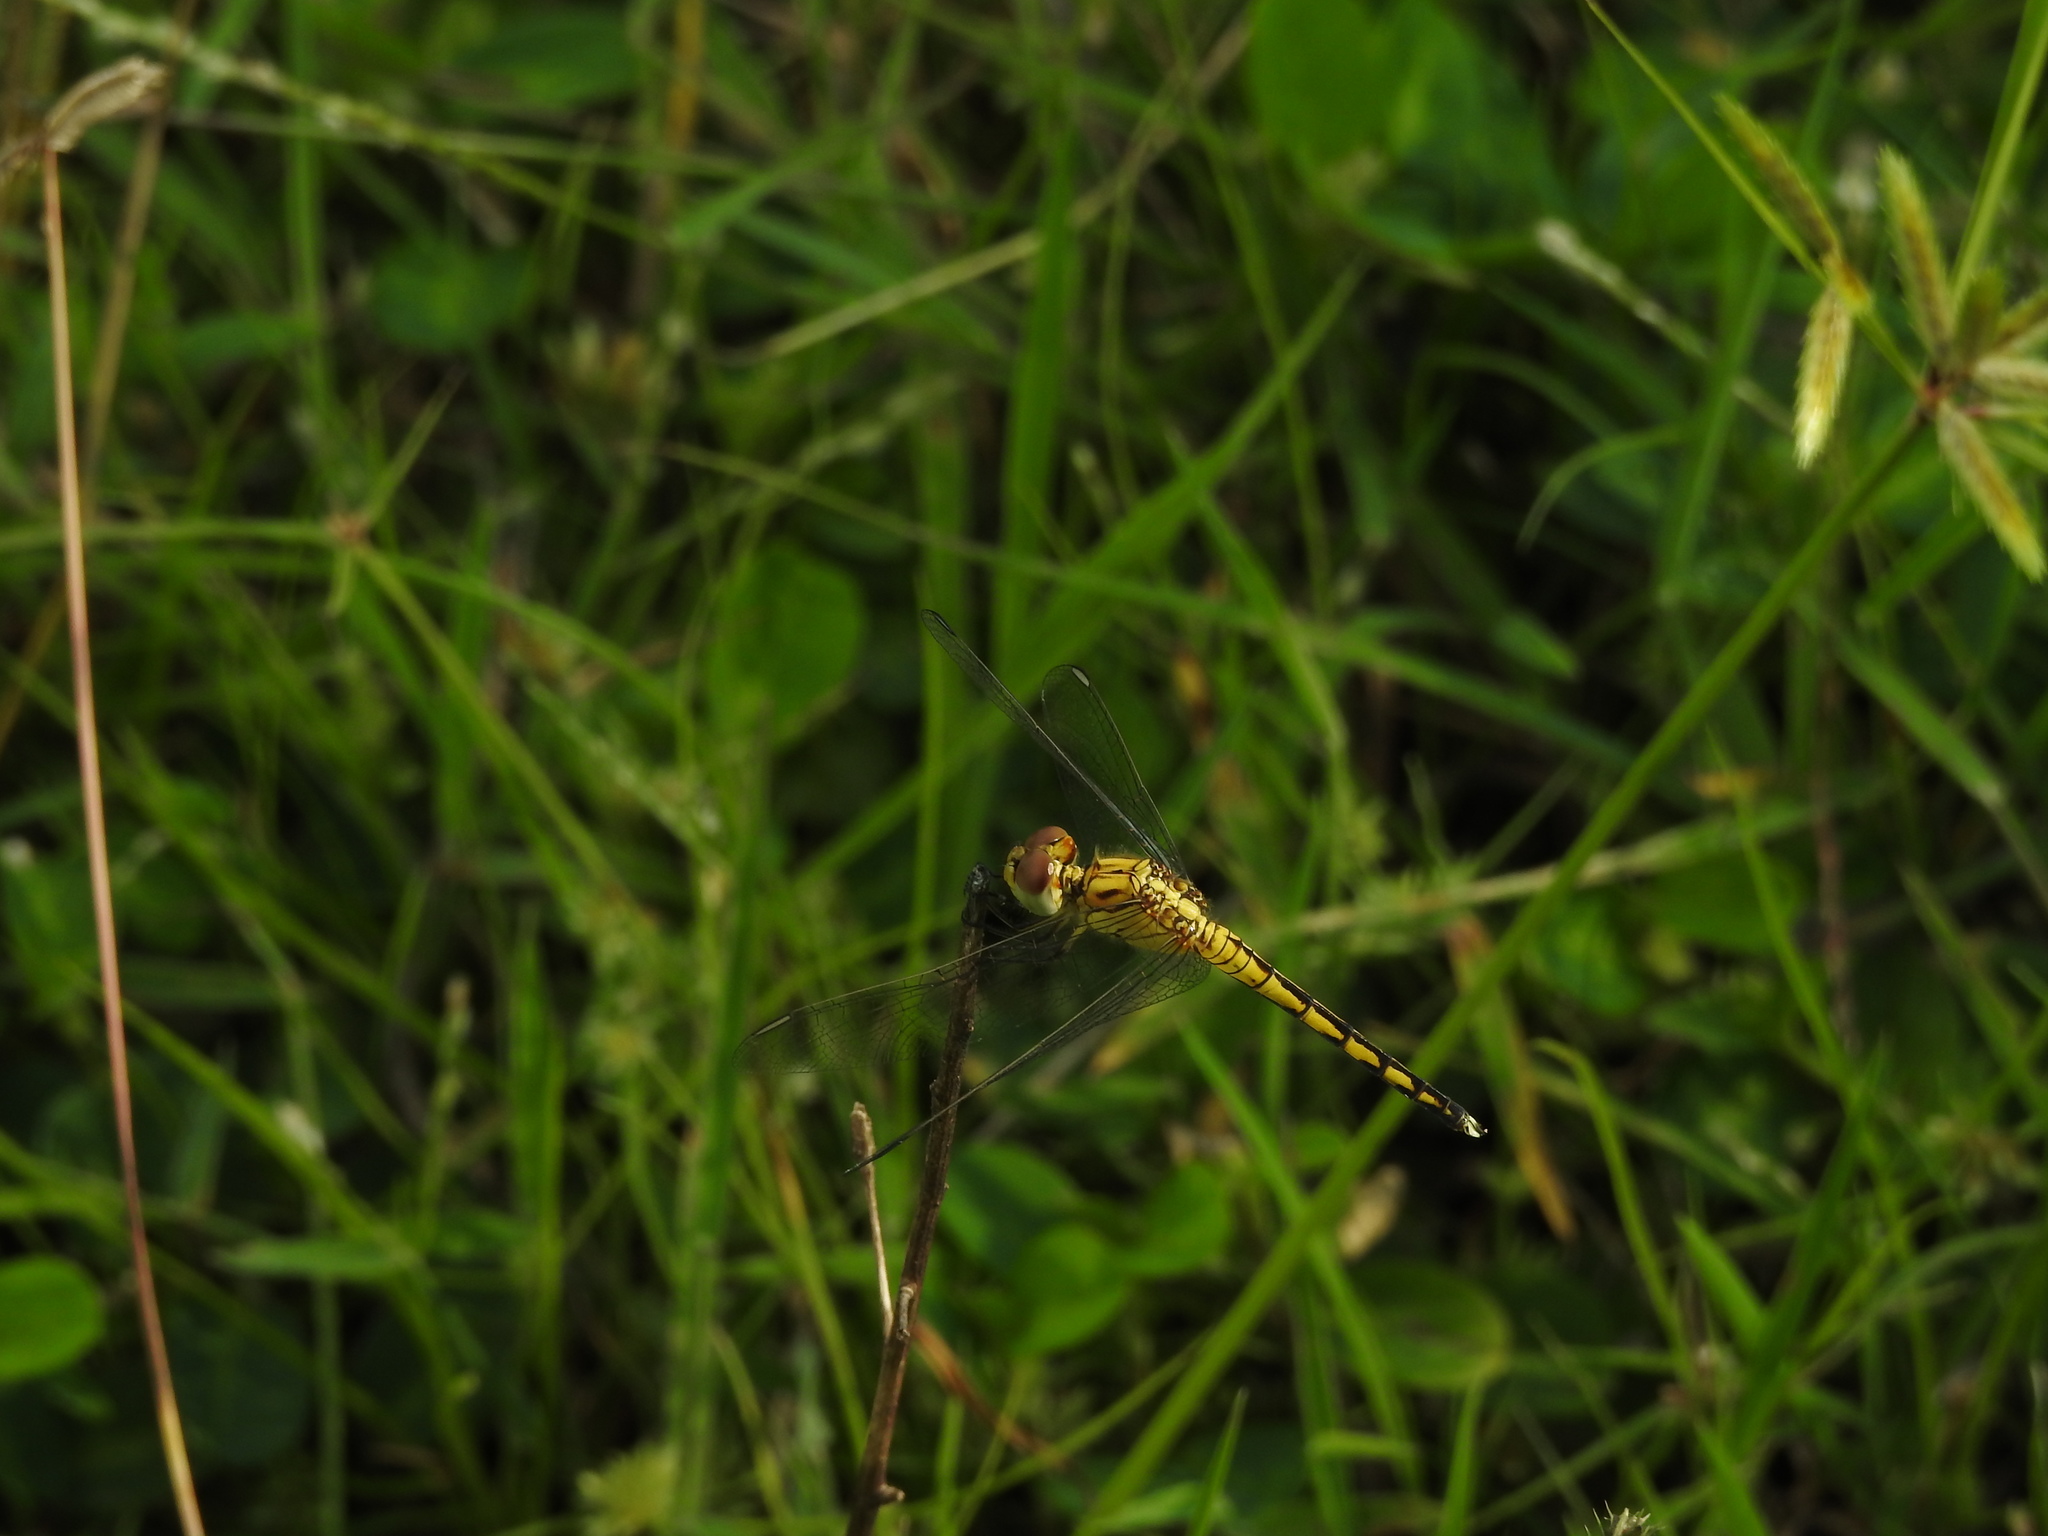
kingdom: Animalia
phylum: Arthropoda
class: Insecta
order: Odonata
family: Libellulidae
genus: Indothemis
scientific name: Indothemis carnatica
